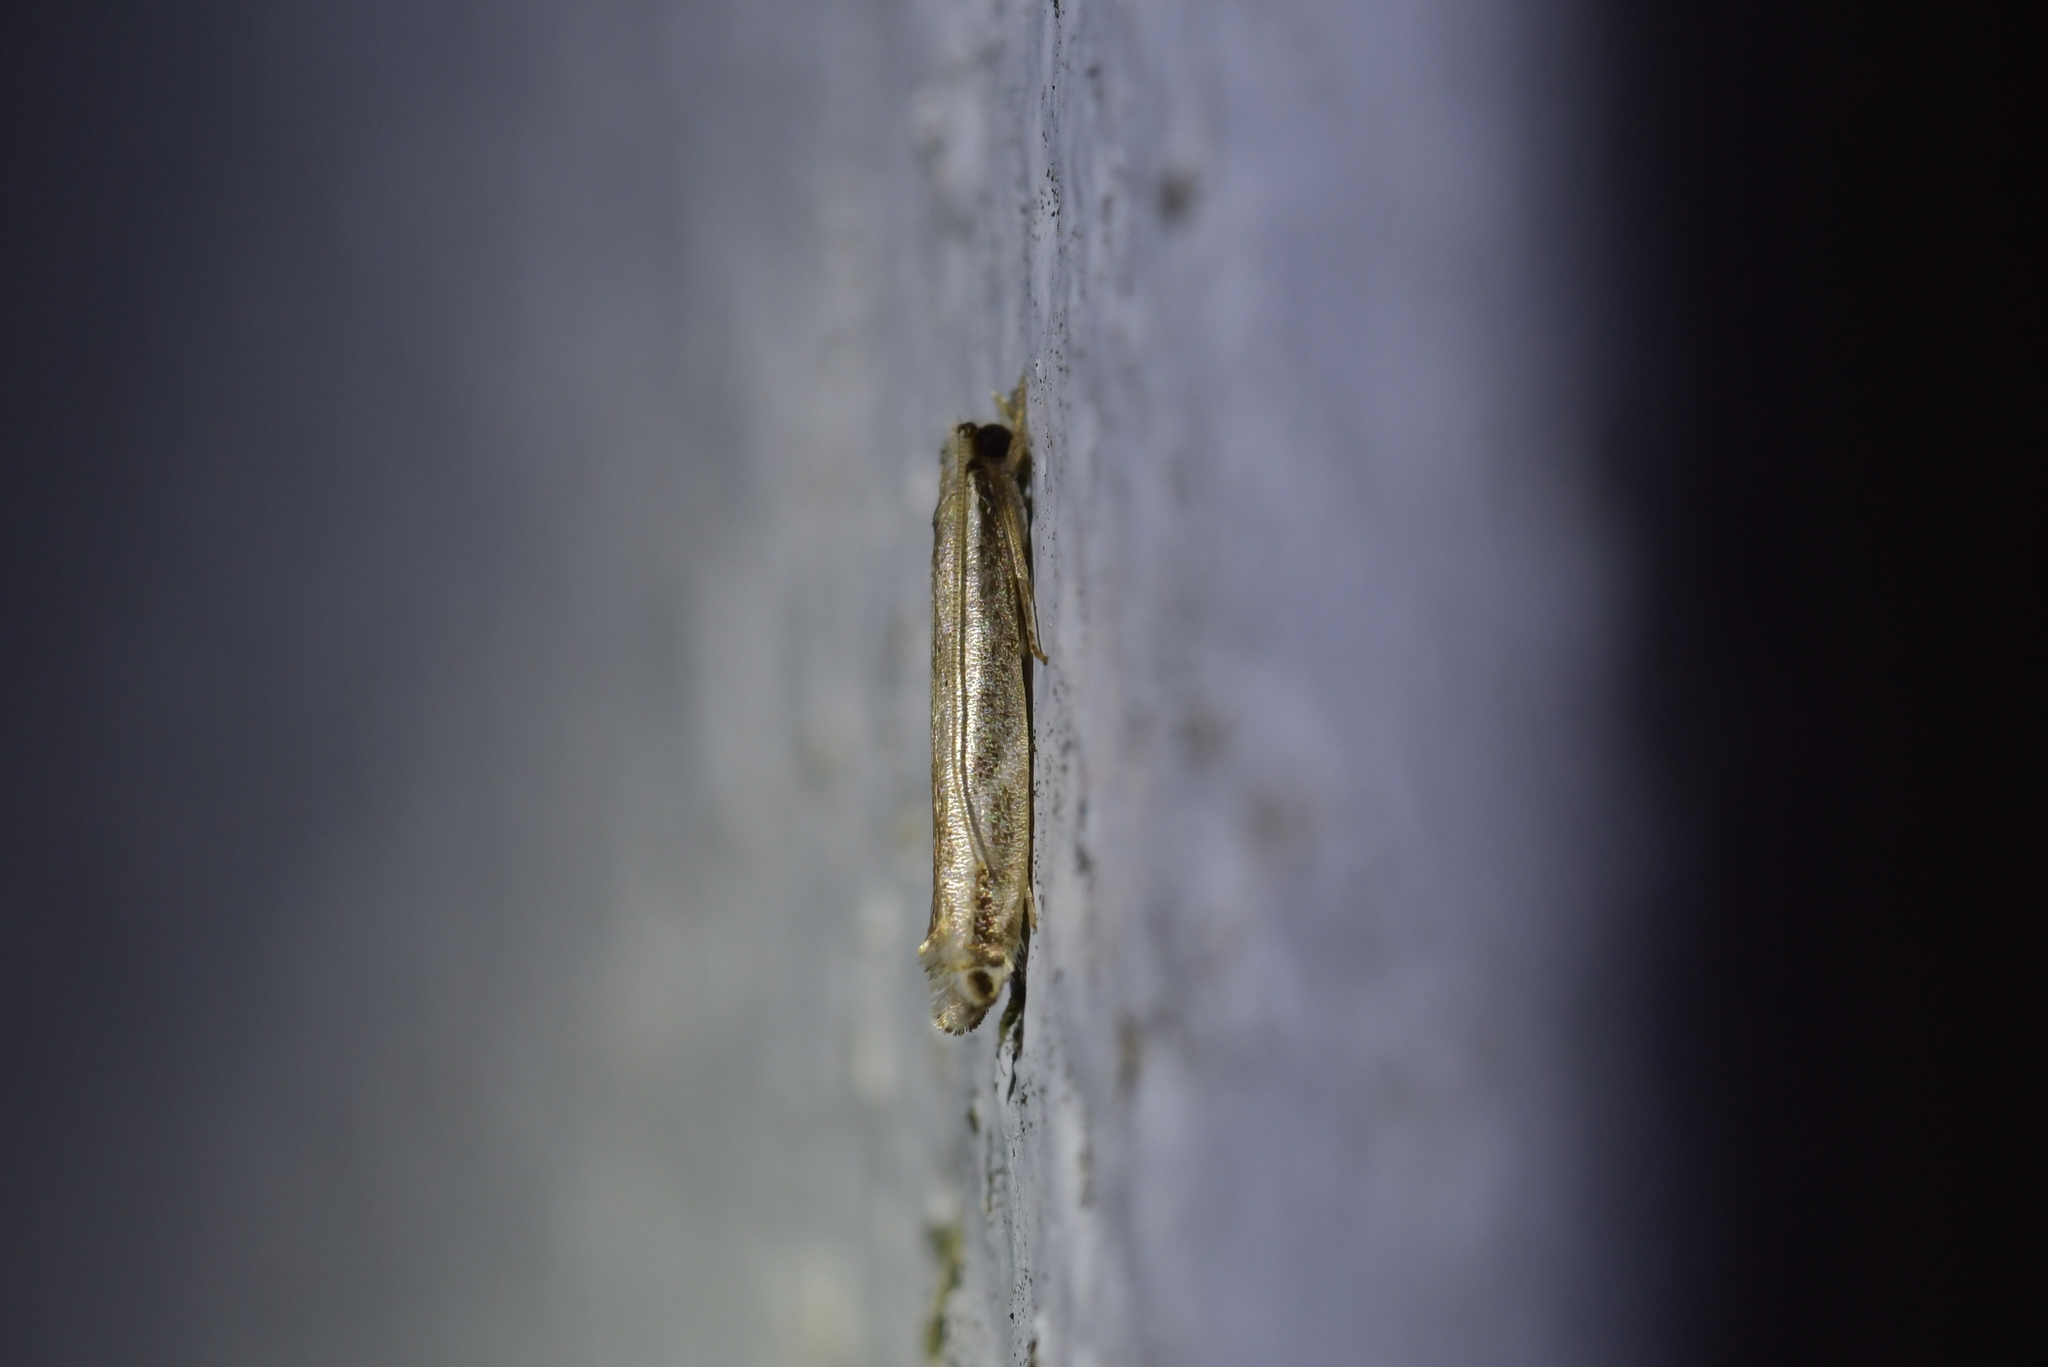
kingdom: Animalia
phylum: Arthropoda
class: Insecta
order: Lepidoptera
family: Tineidae
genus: Erechthias
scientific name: Erechthias terminella
